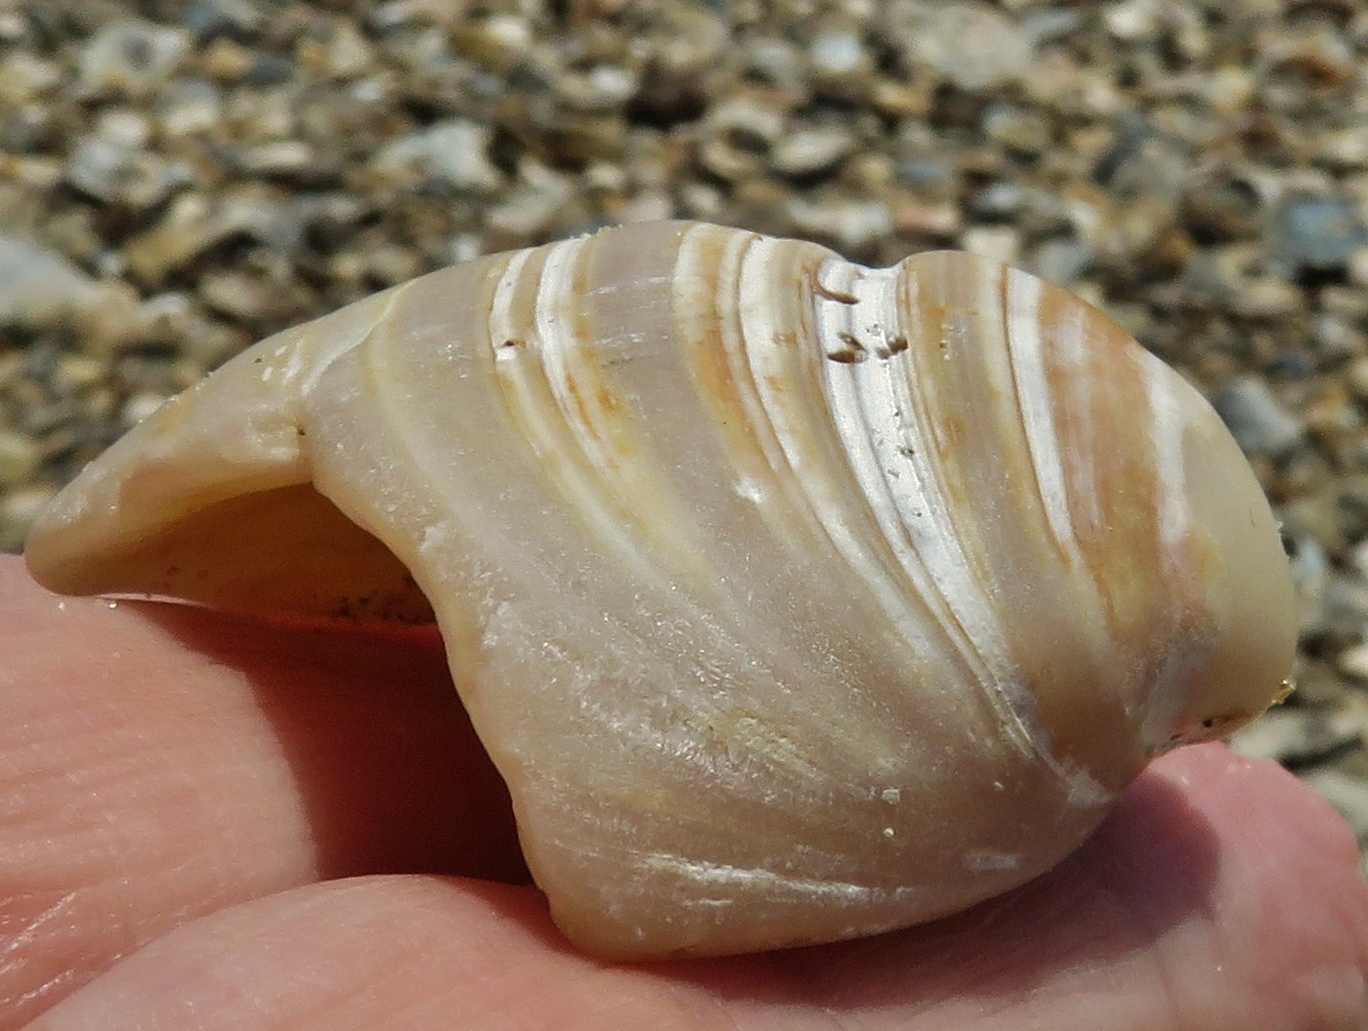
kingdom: Animalia
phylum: Mollusca
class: Bivalvia
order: Venerida
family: Mactridae
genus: Rangia
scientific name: Rangia cuneata
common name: Atlantic rangia
